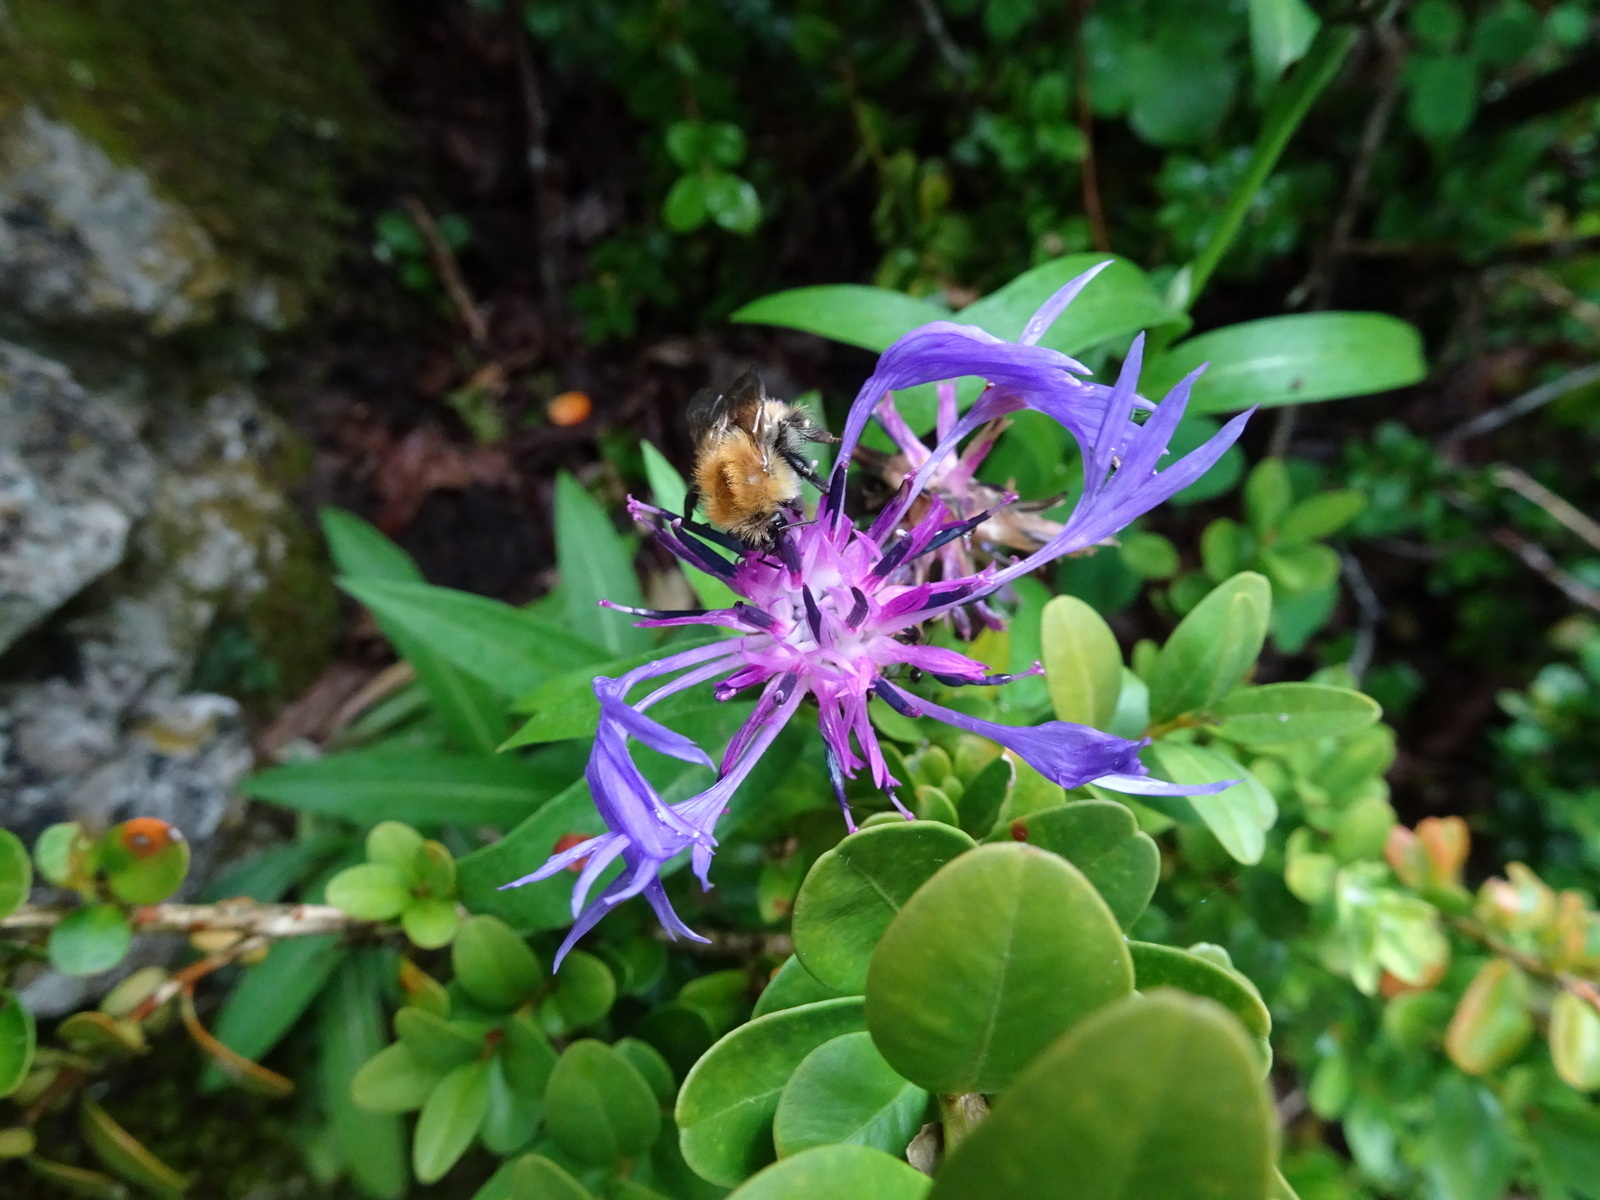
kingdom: Plantae
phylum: Tracheophyta
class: Magnoliopsida
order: Asterales
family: Asteraceae
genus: Centaurea
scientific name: Centaurea triumfettii
